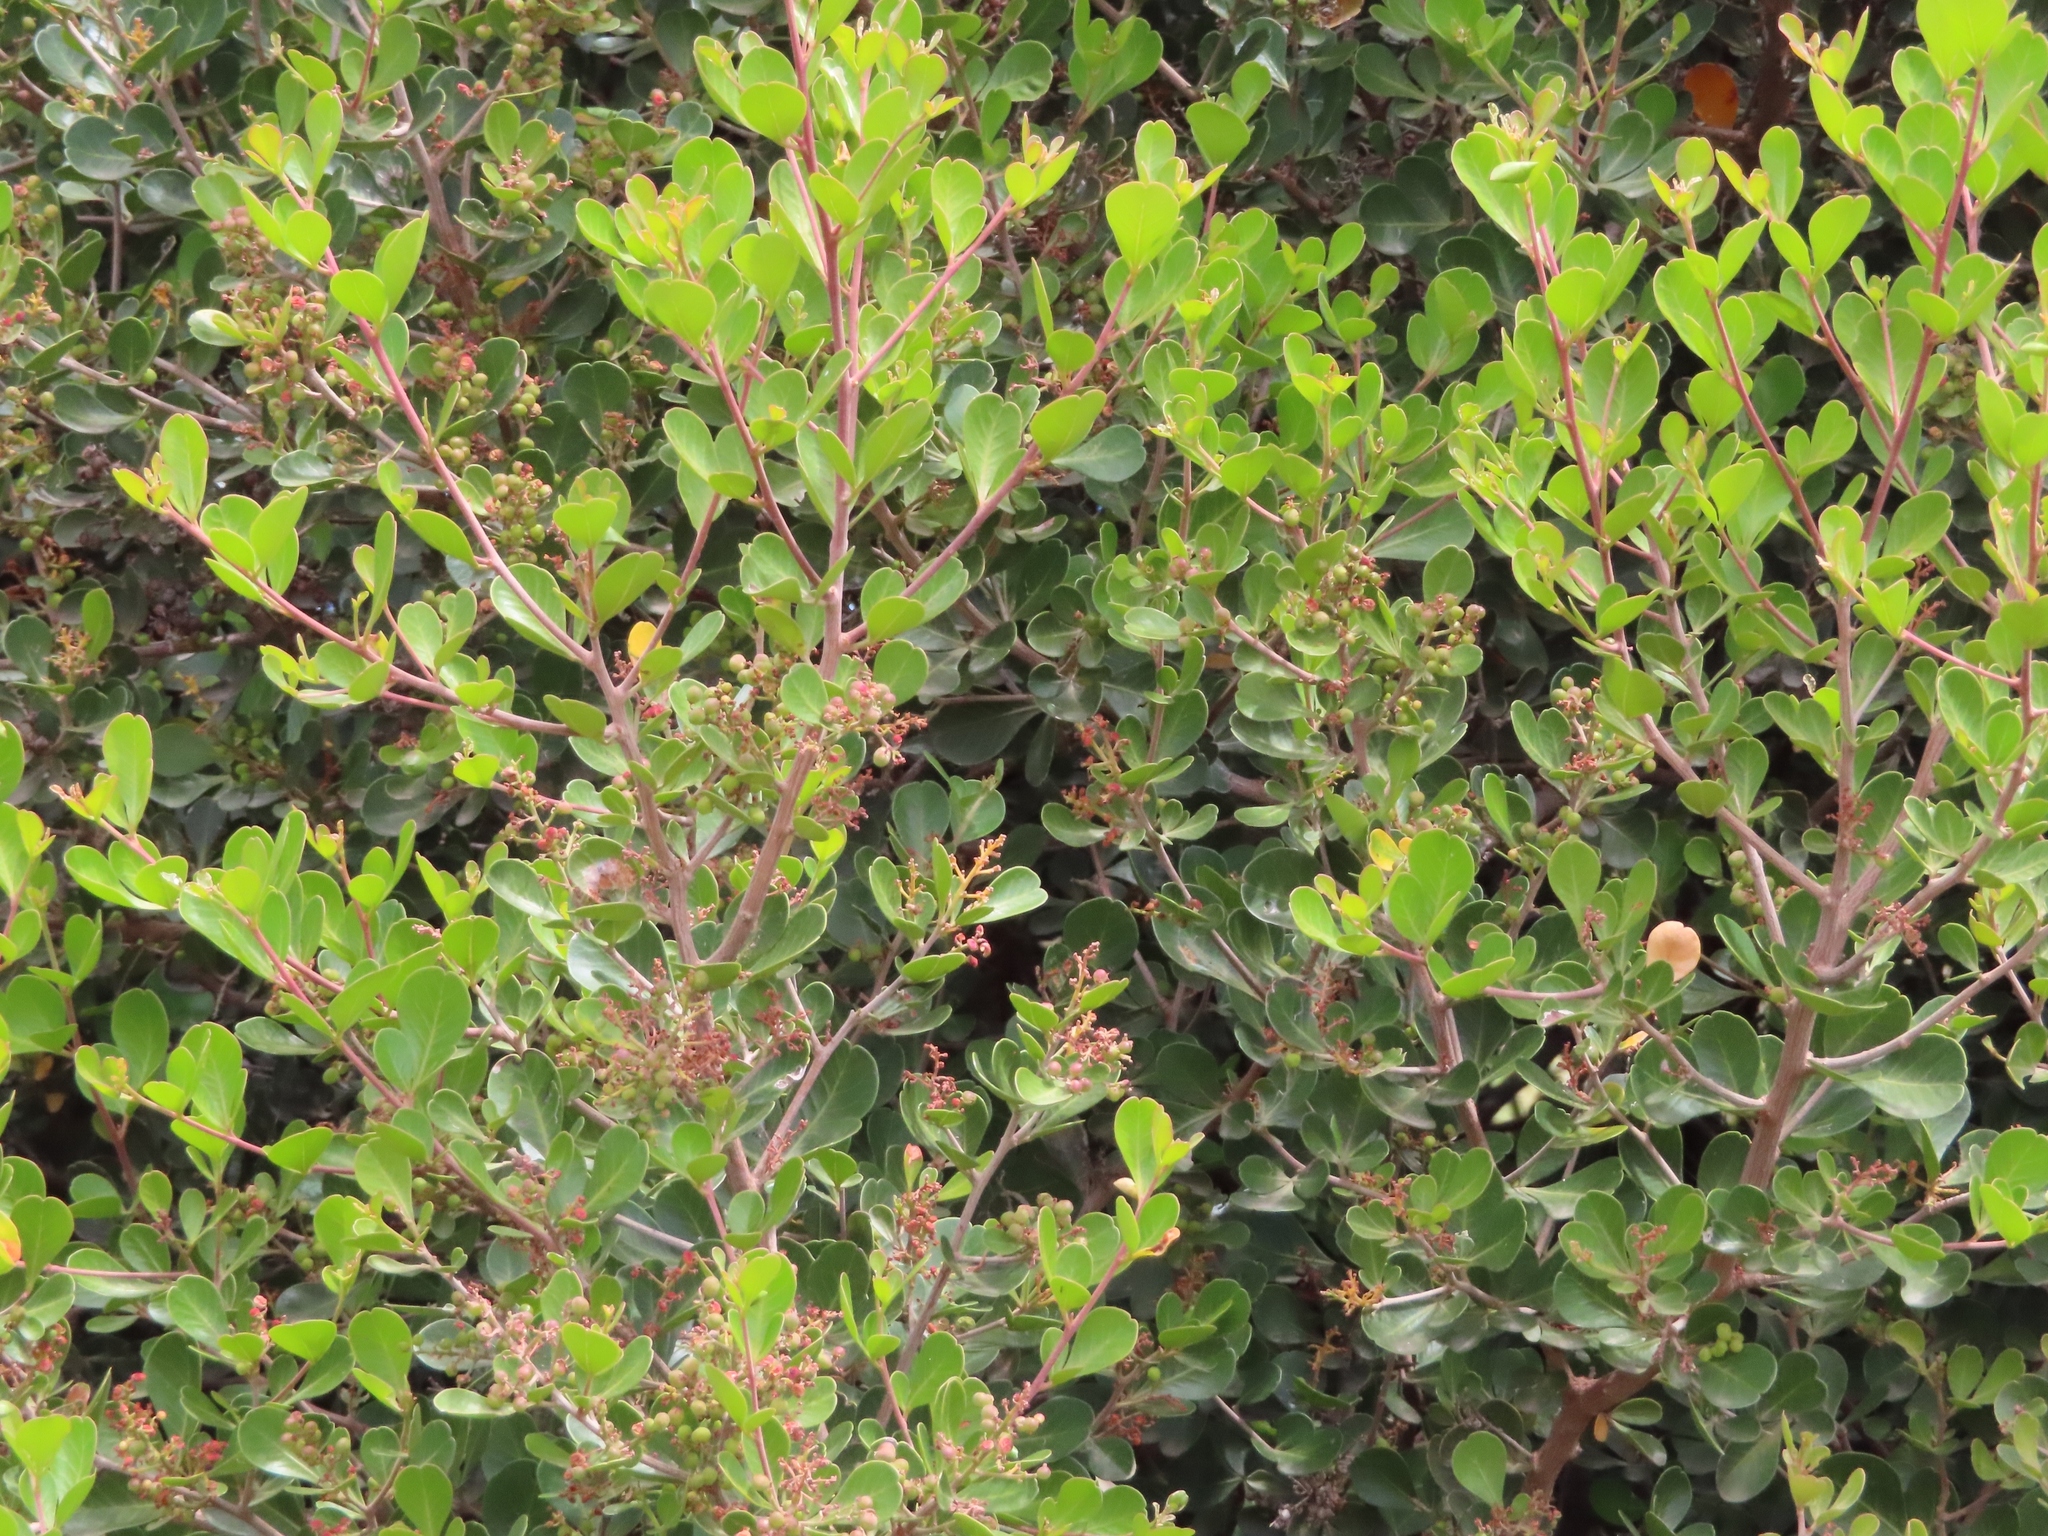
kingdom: Plantae
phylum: Tracheophyta
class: Magnoliopsida
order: Sapindales
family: Anacardiaceae
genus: Searsia
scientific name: Searsia lucida
